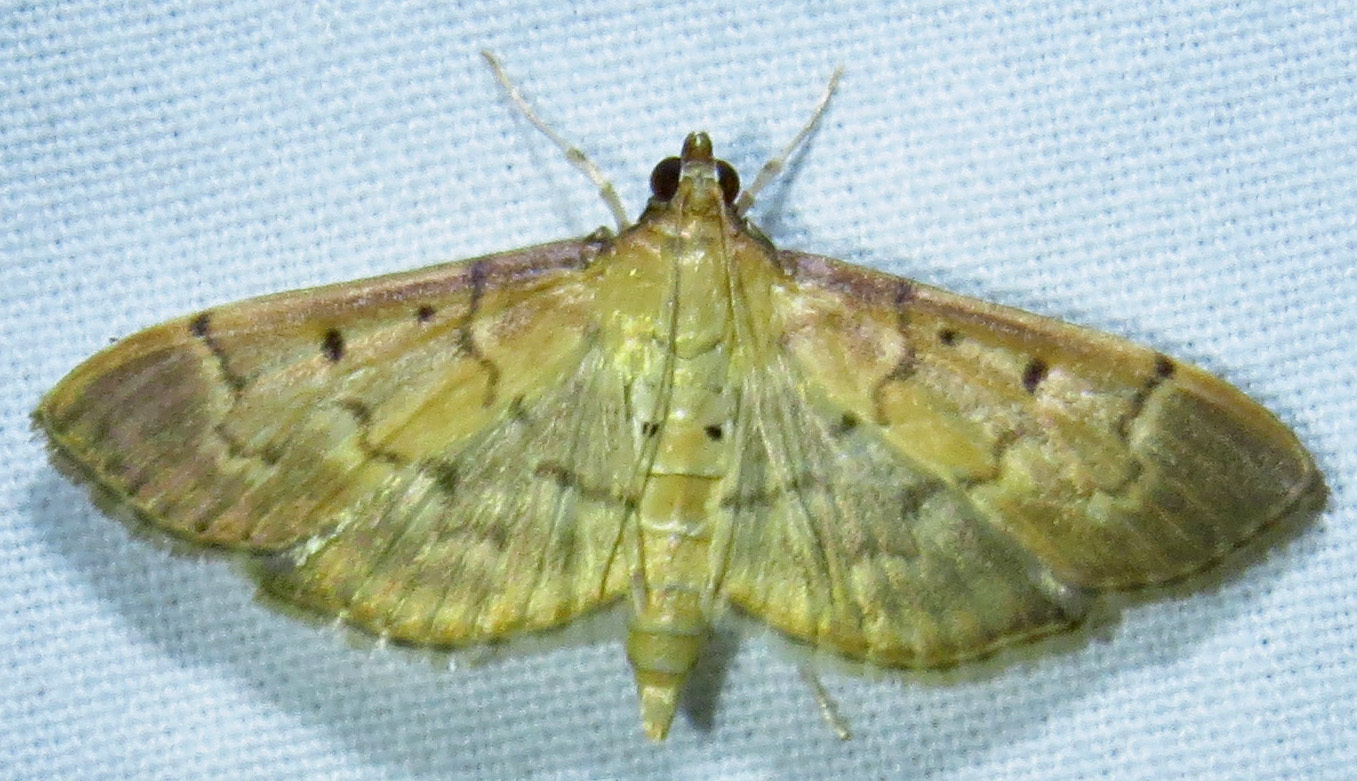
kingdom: Animalia
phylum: Arthropoda
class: Insecta
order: Lepidoptera
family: Crambidae
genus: Herpetogramma
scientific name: Herpetogramma bipunctalis
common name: Southern beet webworm
